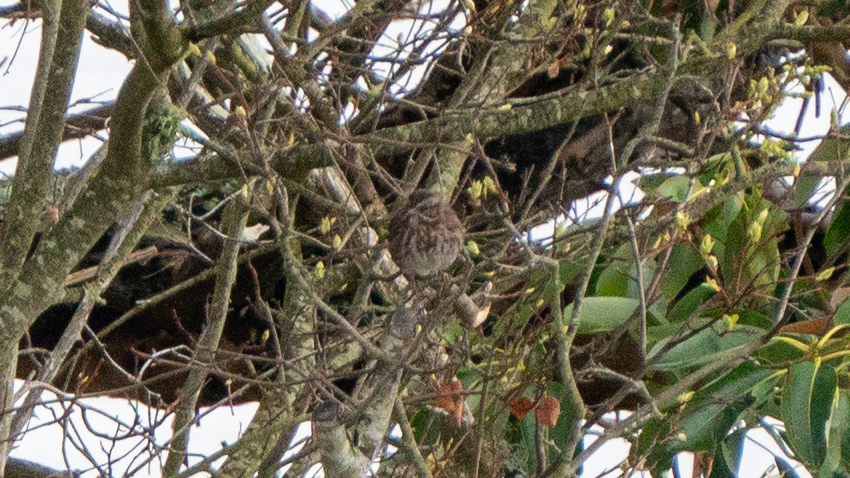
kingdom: Animalia
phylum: Chordata
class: Aves
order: Passeriformes
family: Passerellidae
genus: Melospiza
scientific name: Melospiza melodia
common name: Song sparrow
